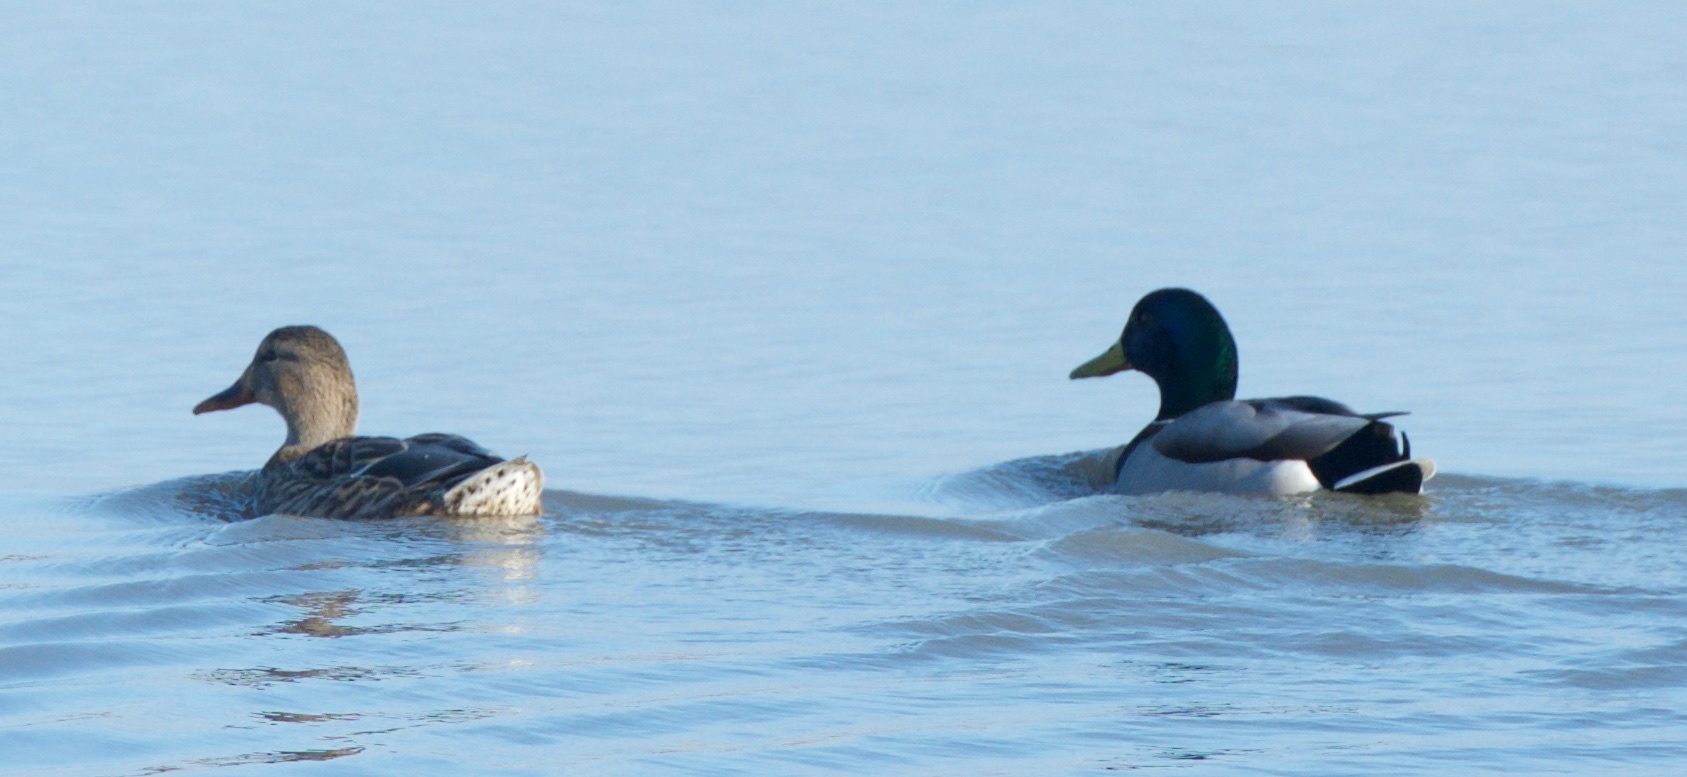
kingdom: Animalia
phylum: Chordata
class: Aves
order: Anseriformes
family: Anatidae
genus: Anas
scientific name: Anas platyrhynchos
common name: Mallard
